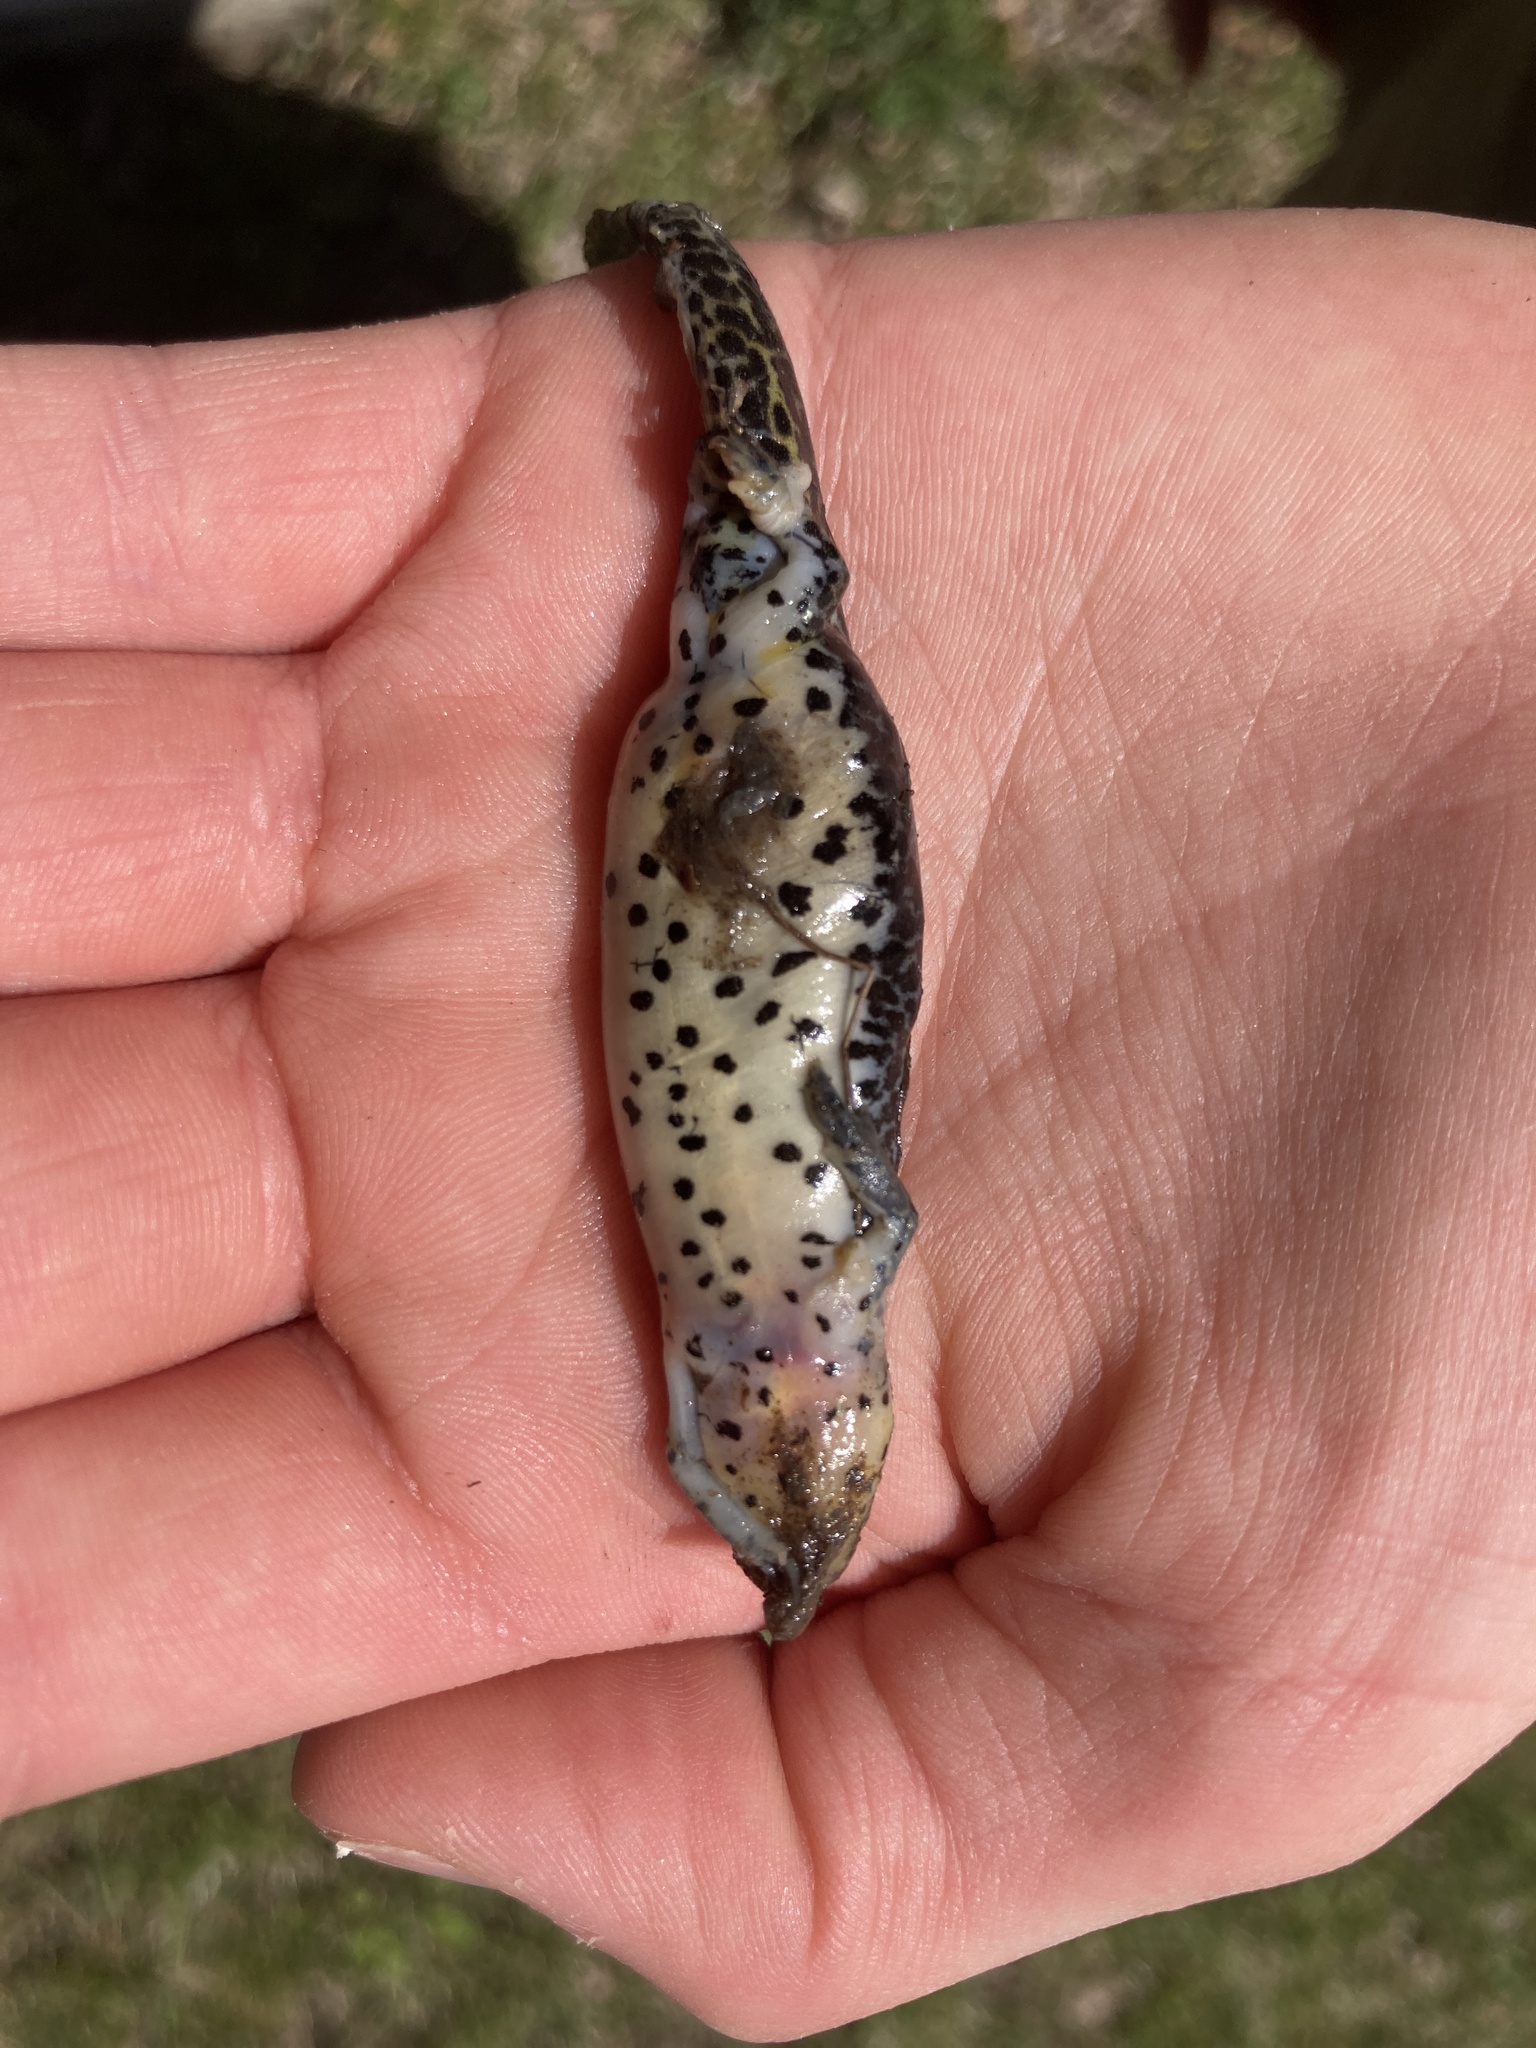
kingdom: Animalia
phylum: Chordata
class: Amphibia
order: Caudata
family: Salamandridae
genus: Notophthalmus
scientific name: Notophthalmus viridescens
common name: Eastern newt
